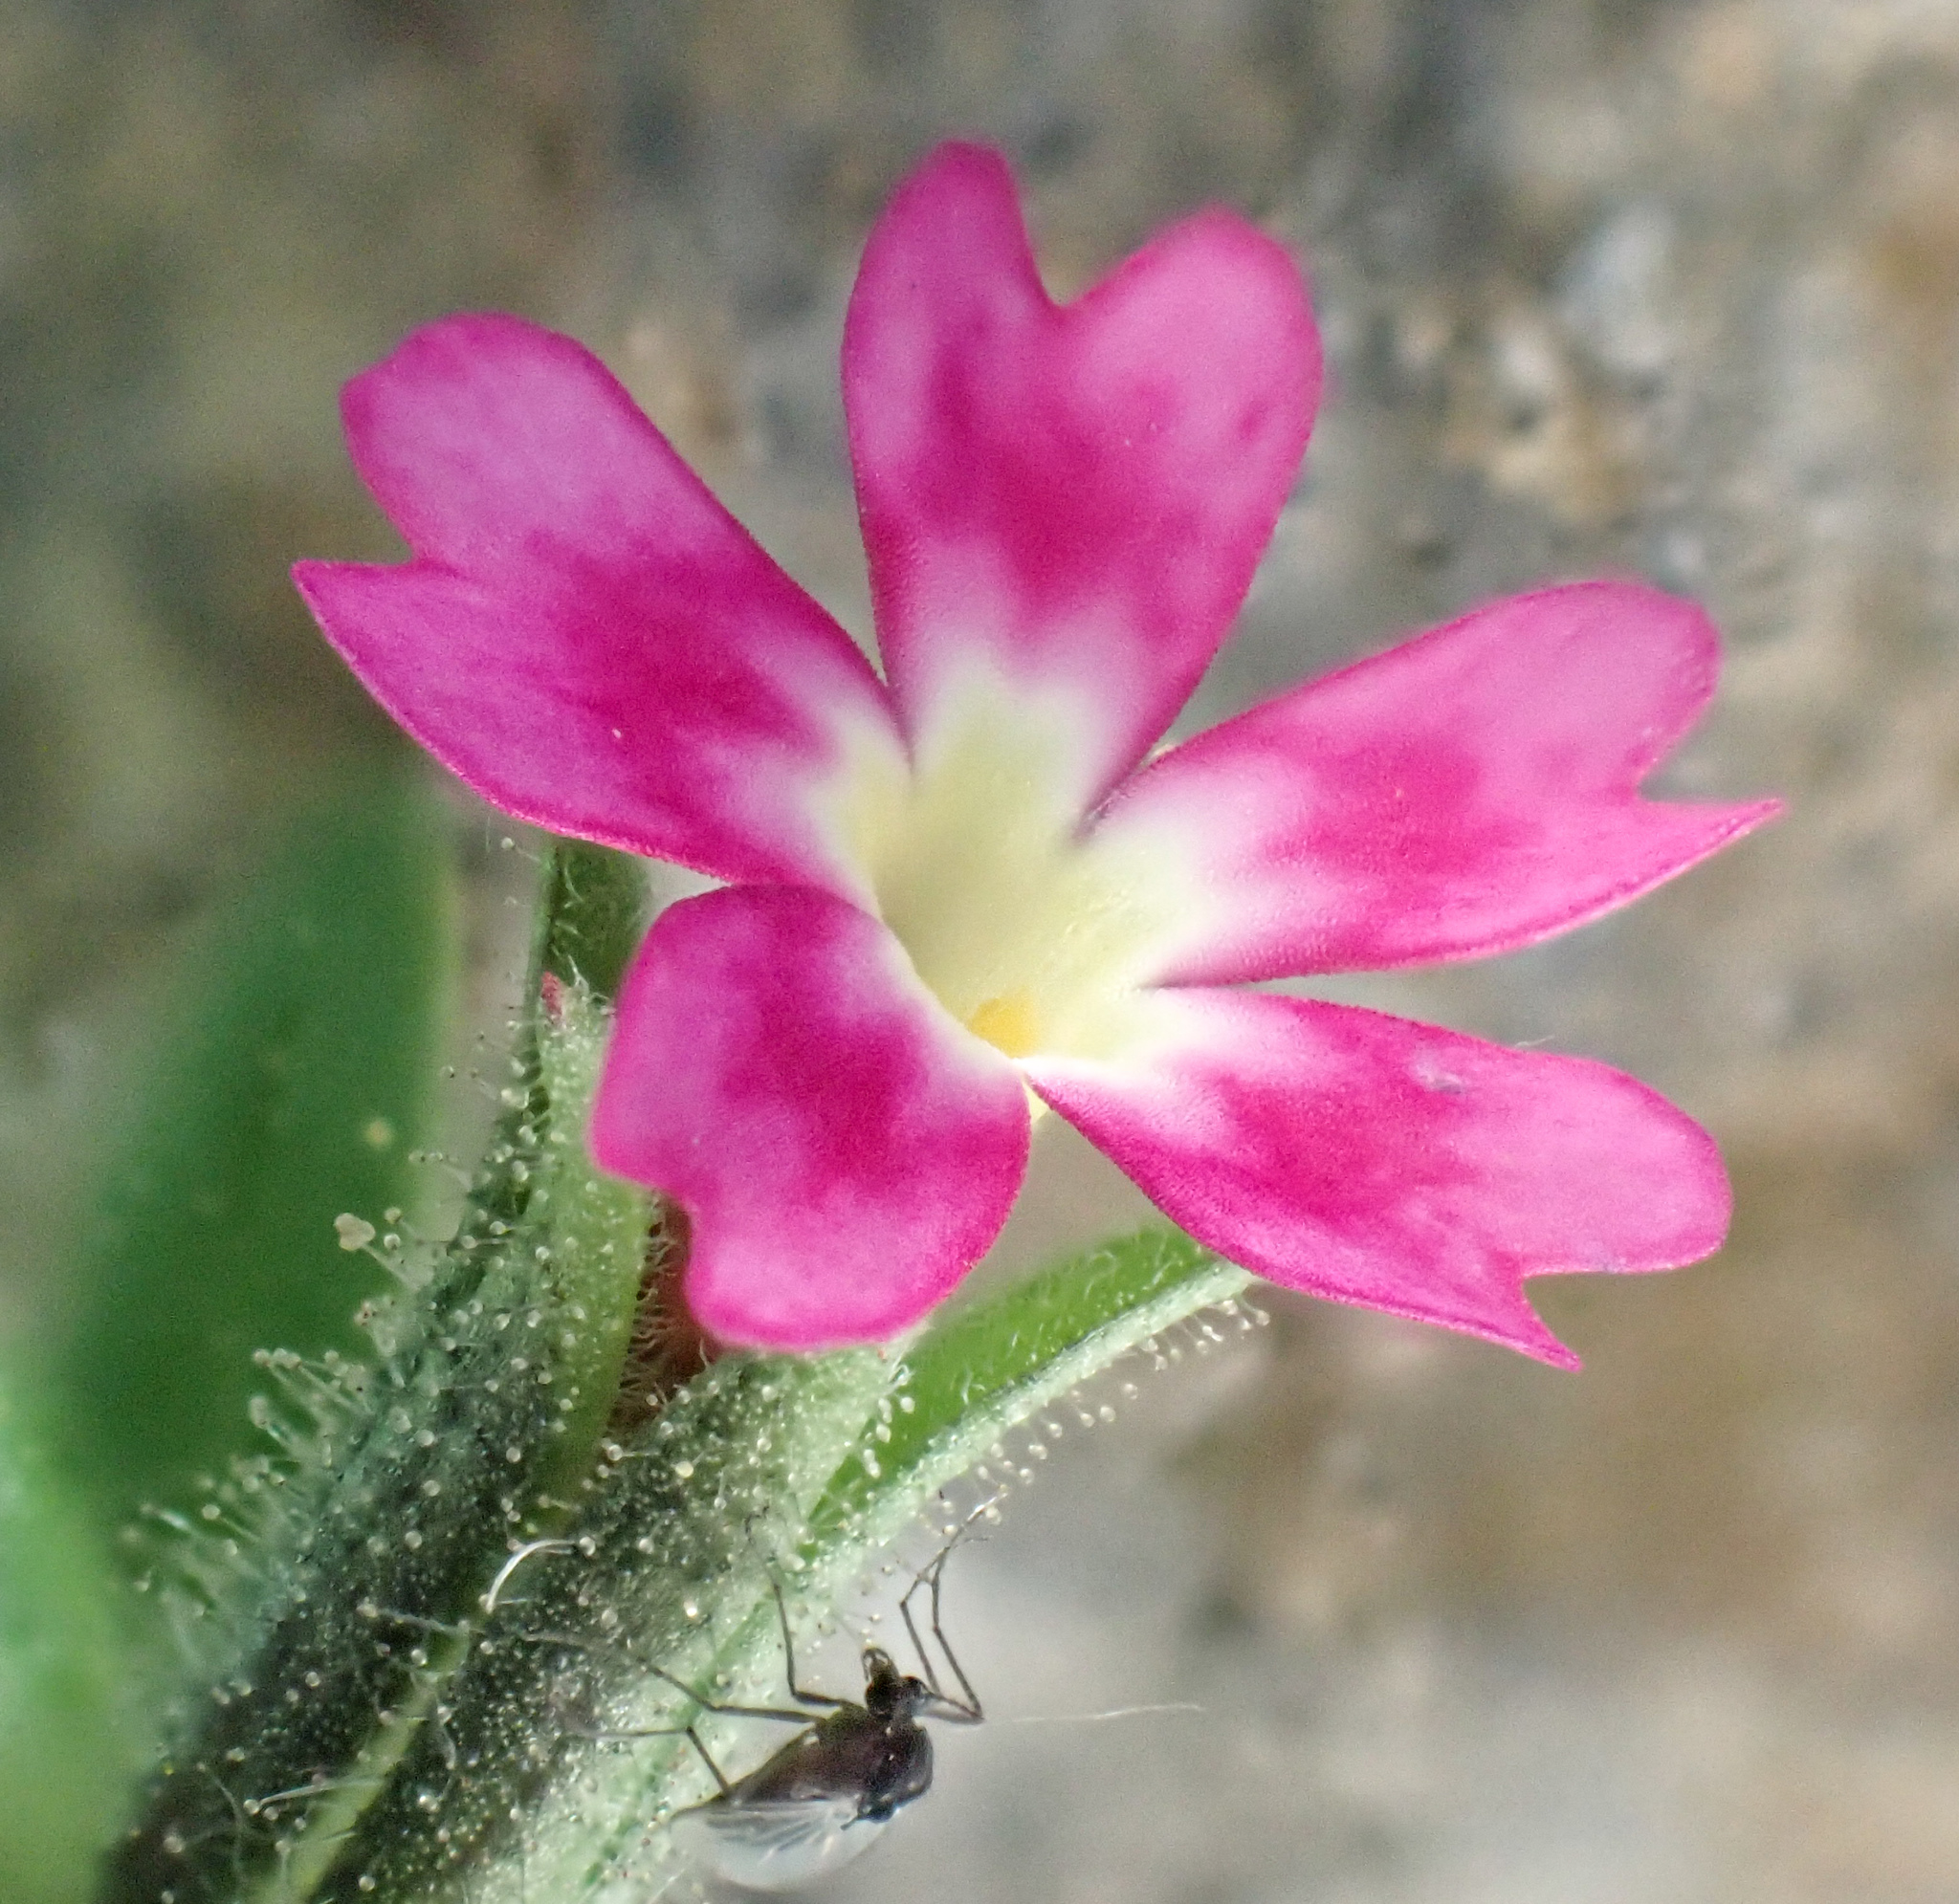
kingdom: Plantae
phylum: Tracheophyta
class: Magnoliopsida
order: Ericales
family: Polemoniaceae
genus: Phlox
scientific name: Phlox gracilis
